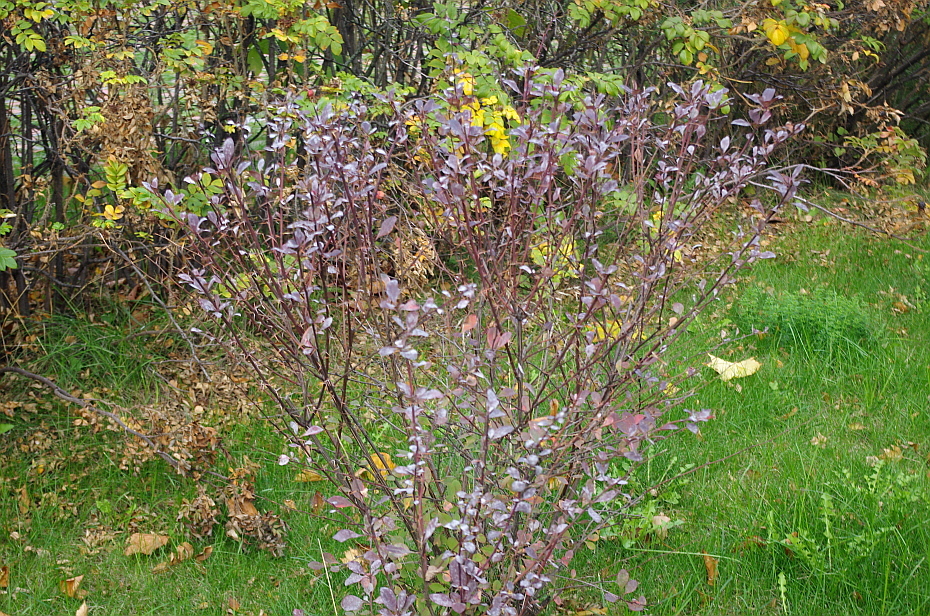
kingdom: Fungi
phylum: Ascomycota
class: Leotiomycetes
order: Helotiales
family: Erysiphaceae
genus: Erysiphe
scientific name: Erysiphe berberidis
